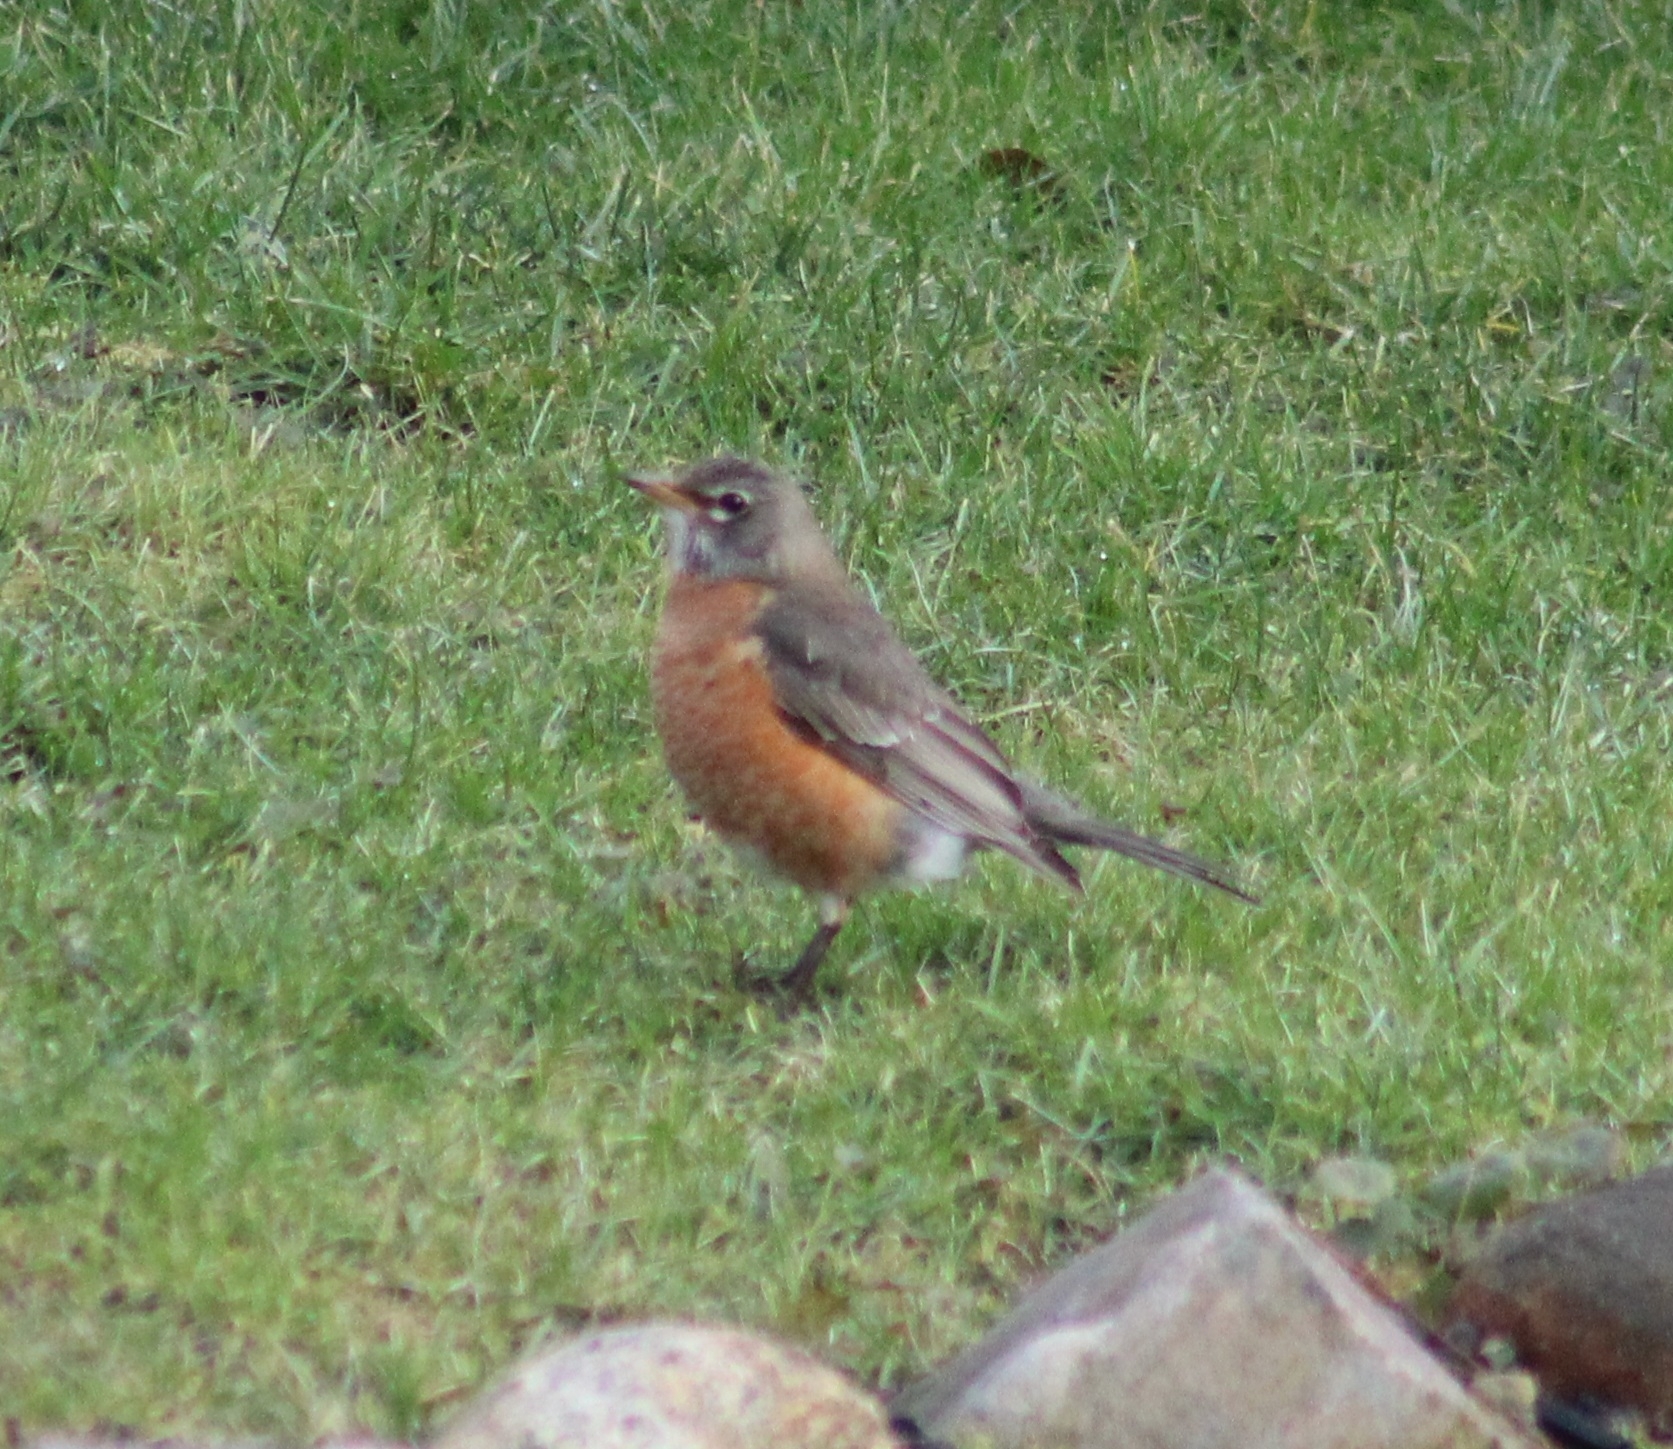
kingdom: Animalia
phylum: Chordata
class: Aves
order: Passeriformes
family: Turdidae
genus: Turdus
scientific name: Turdus migratorius
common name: American robin
